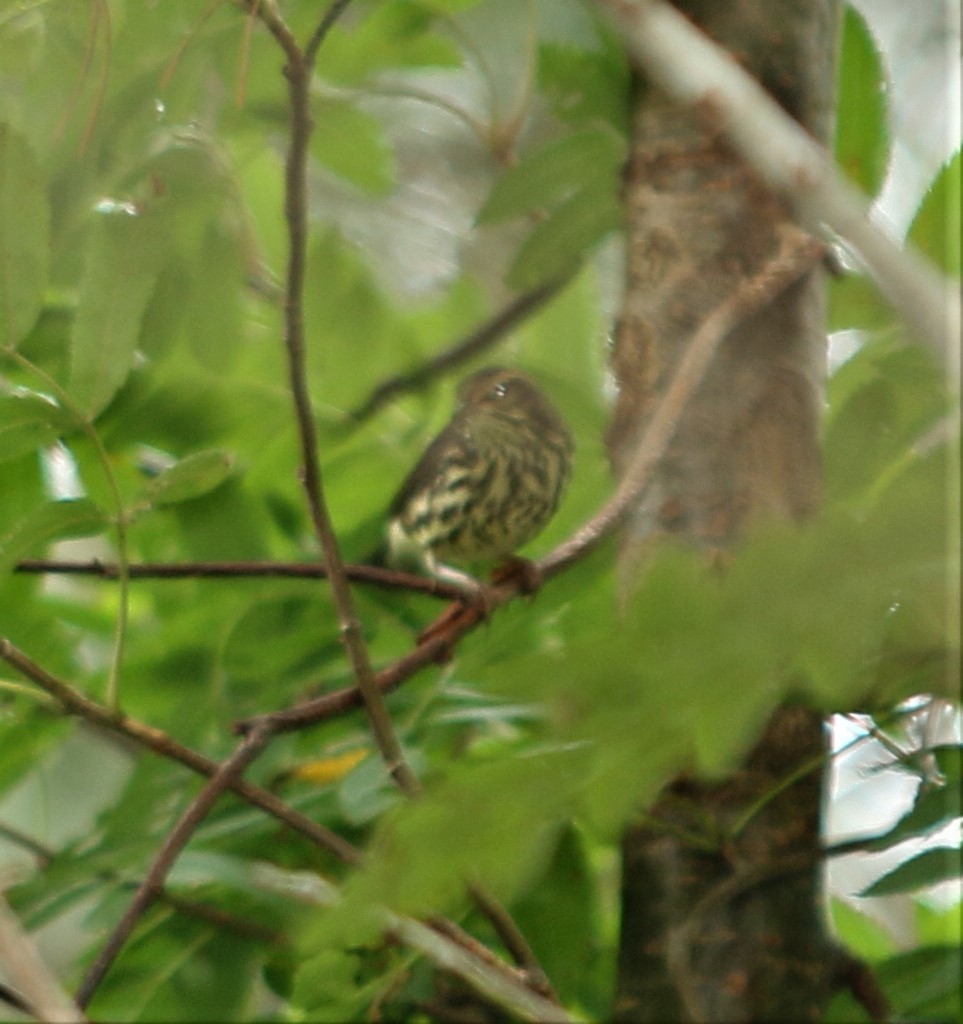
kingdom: Animalia
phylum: Chordata
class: Aves
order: Passeriformes
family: Parulidae
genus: Parkesia
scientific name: Parkesia noveboracensis
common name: Northern waterthrush
